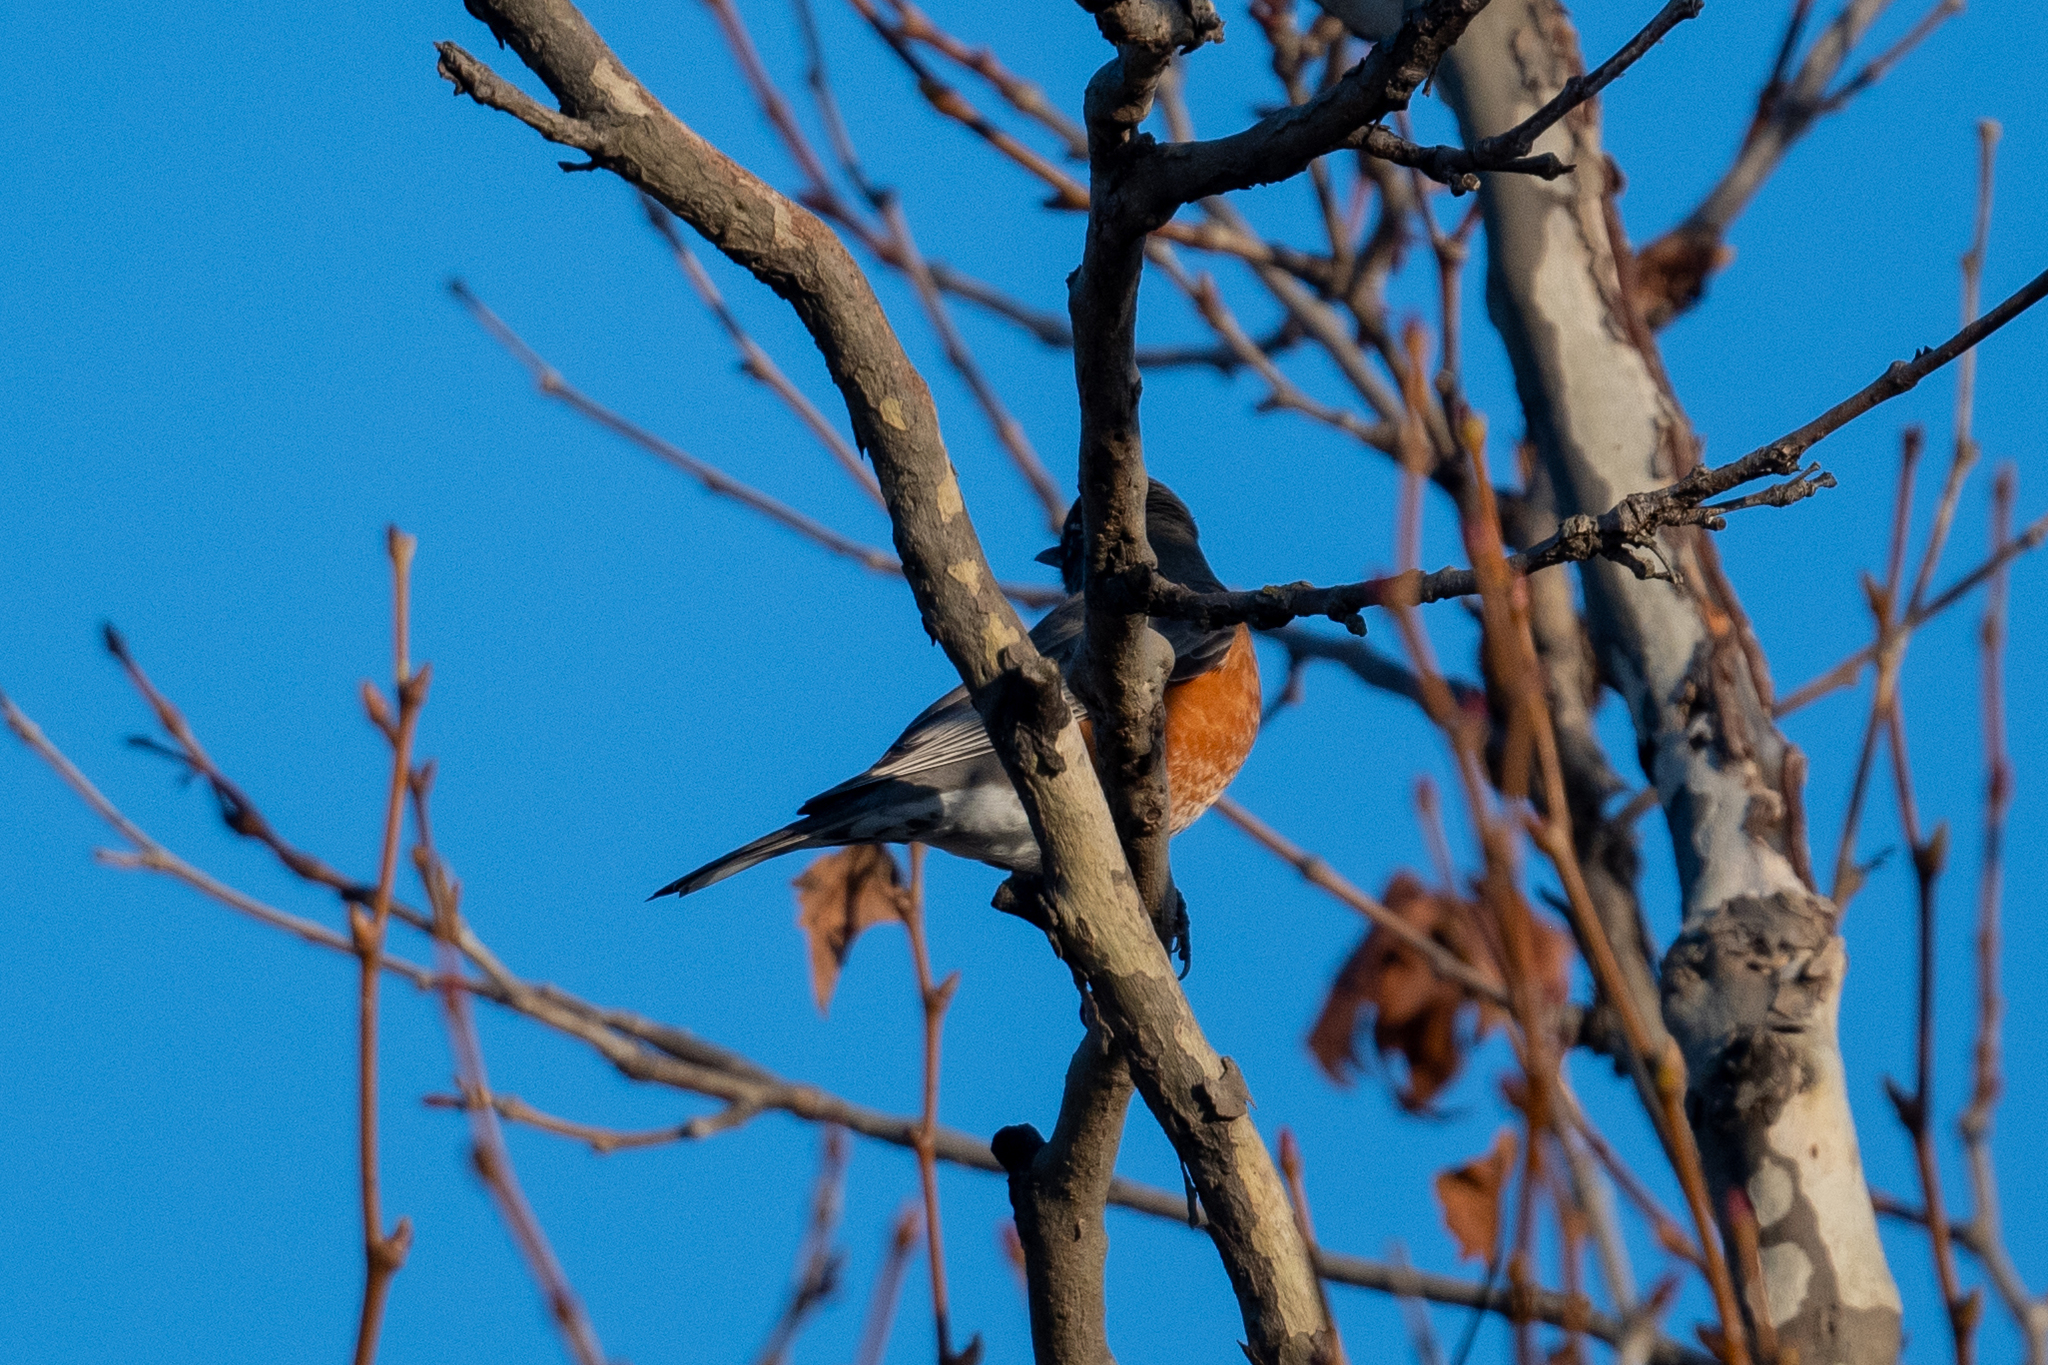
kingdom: Animalia
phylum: Chordata
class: Aves
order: Passeriformes
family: Turdidae
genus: Turdus
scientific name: Turdus migratorius
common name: American robin
